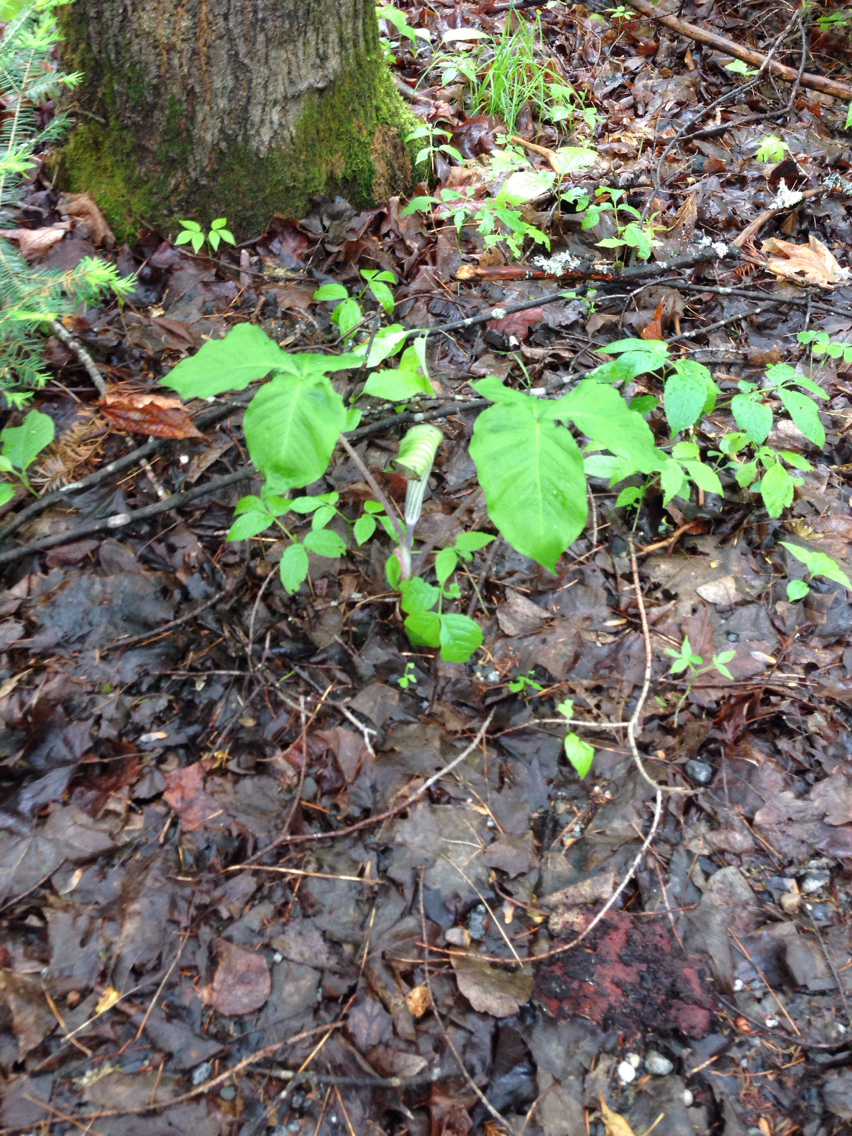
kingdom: Plantae
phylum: Tracheophyta
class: Liliopsida
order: Alismatales
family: Araceae
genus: Arisaema
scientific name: Arisaema triphyllum
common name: Jack-in-the-pulpit
